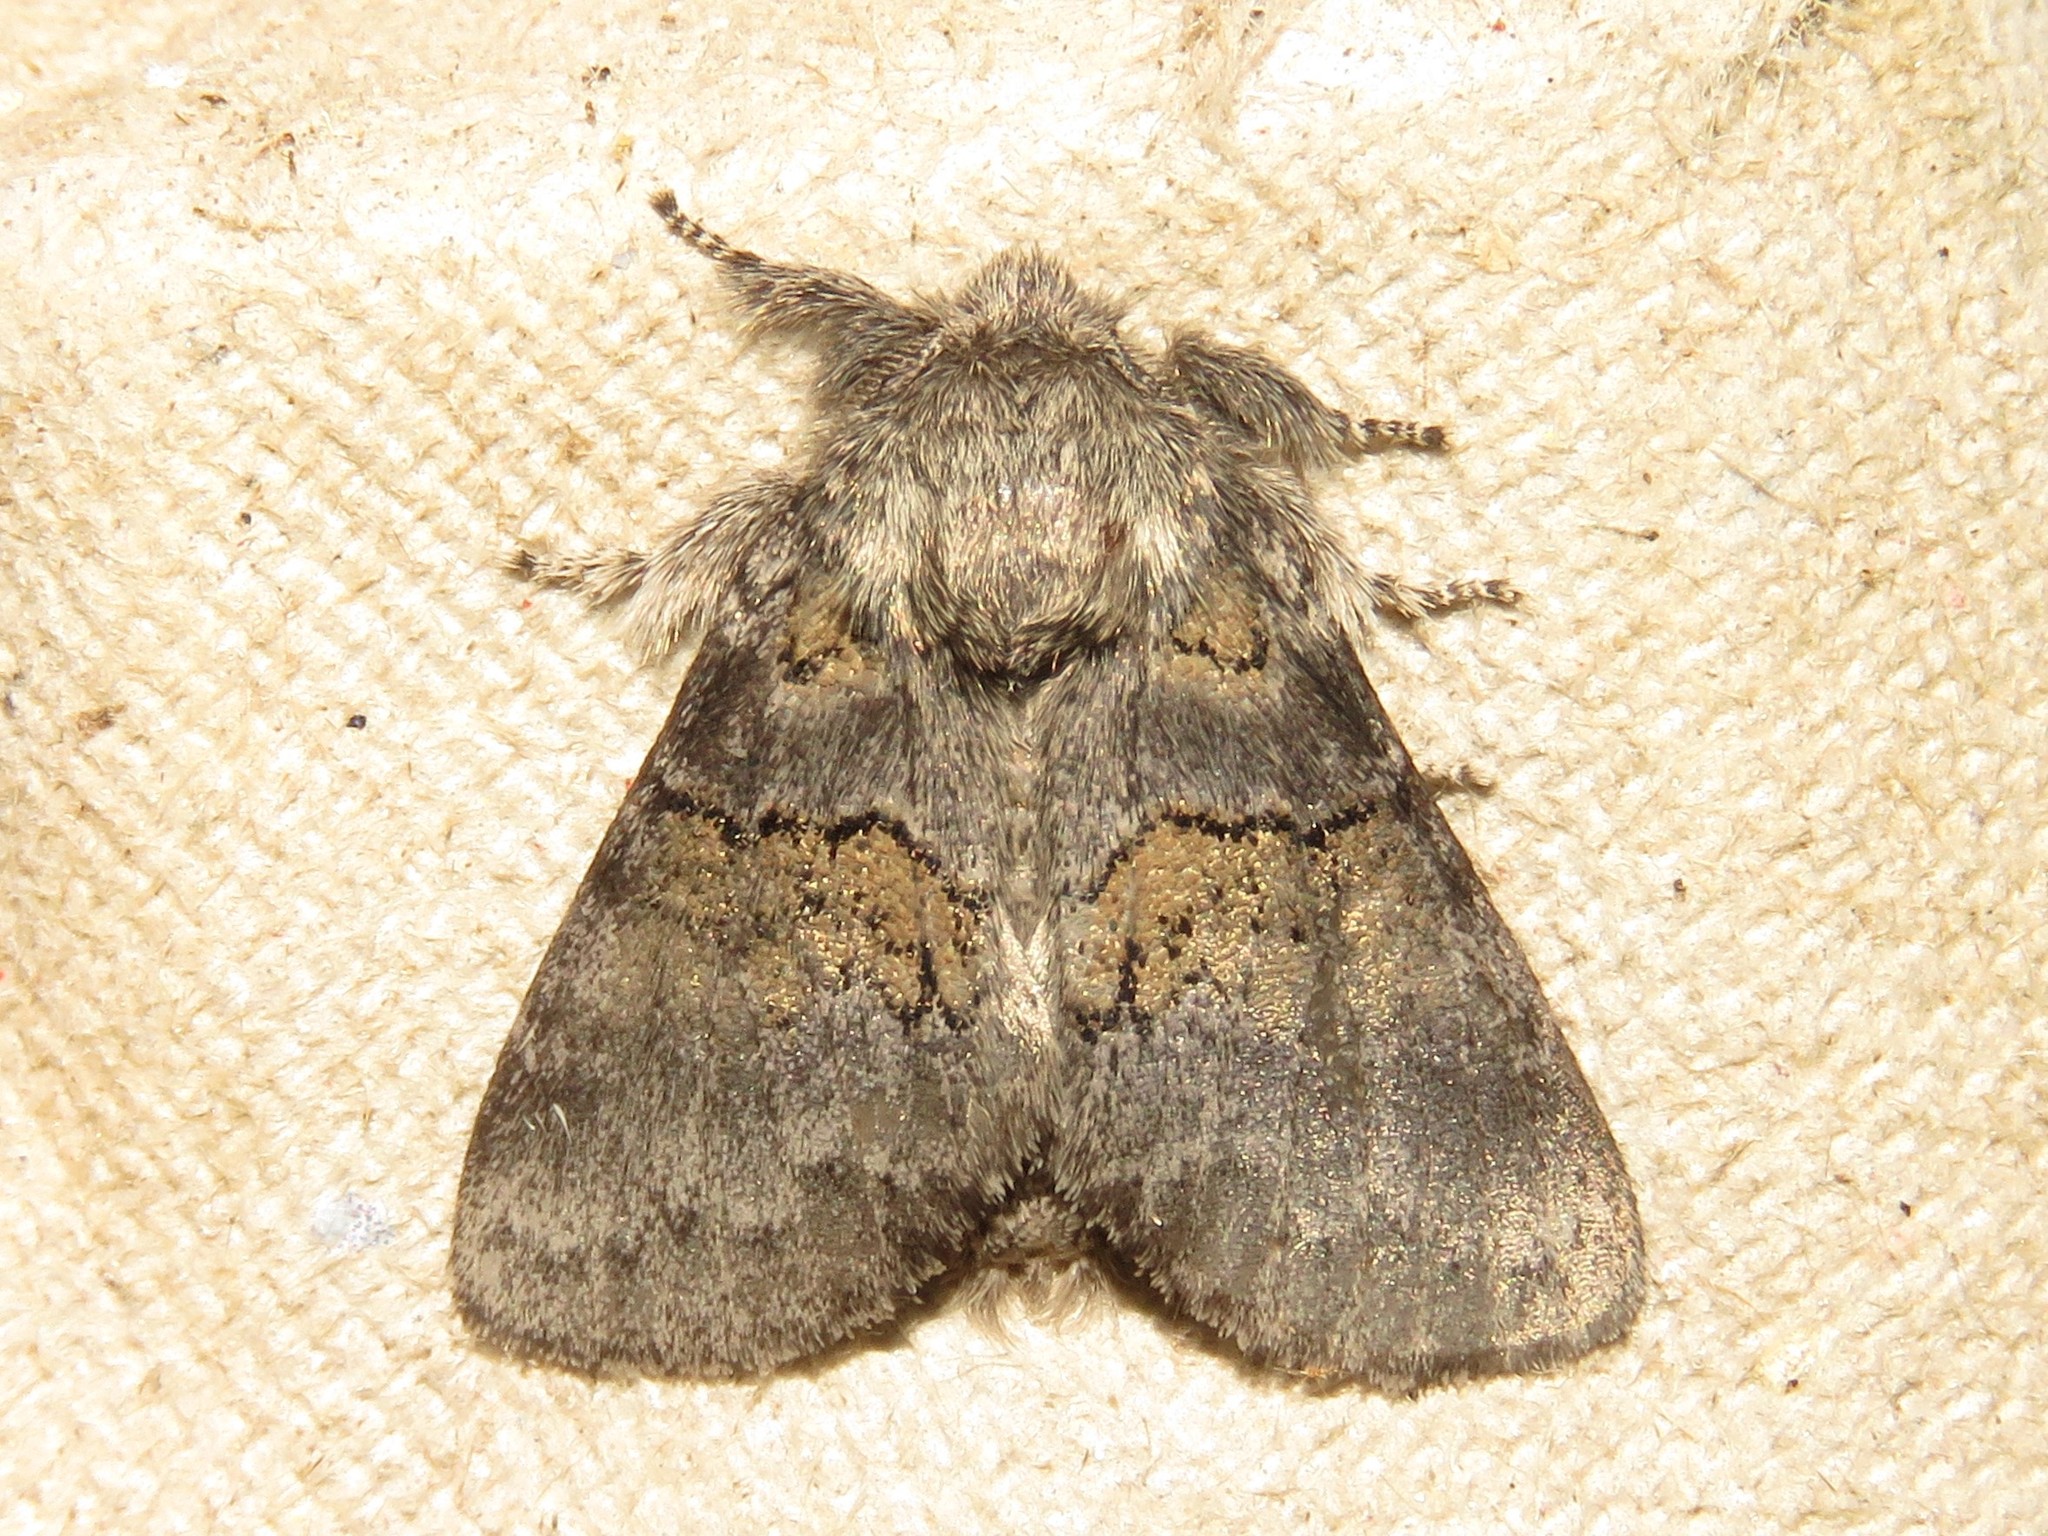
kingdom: Animalia
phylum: Arthropoda
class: Insecta
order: Lepidoptera
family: Notodontidae
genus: Gluphisia
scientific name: Gluphisia septentrionis
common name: Common gluphisia
